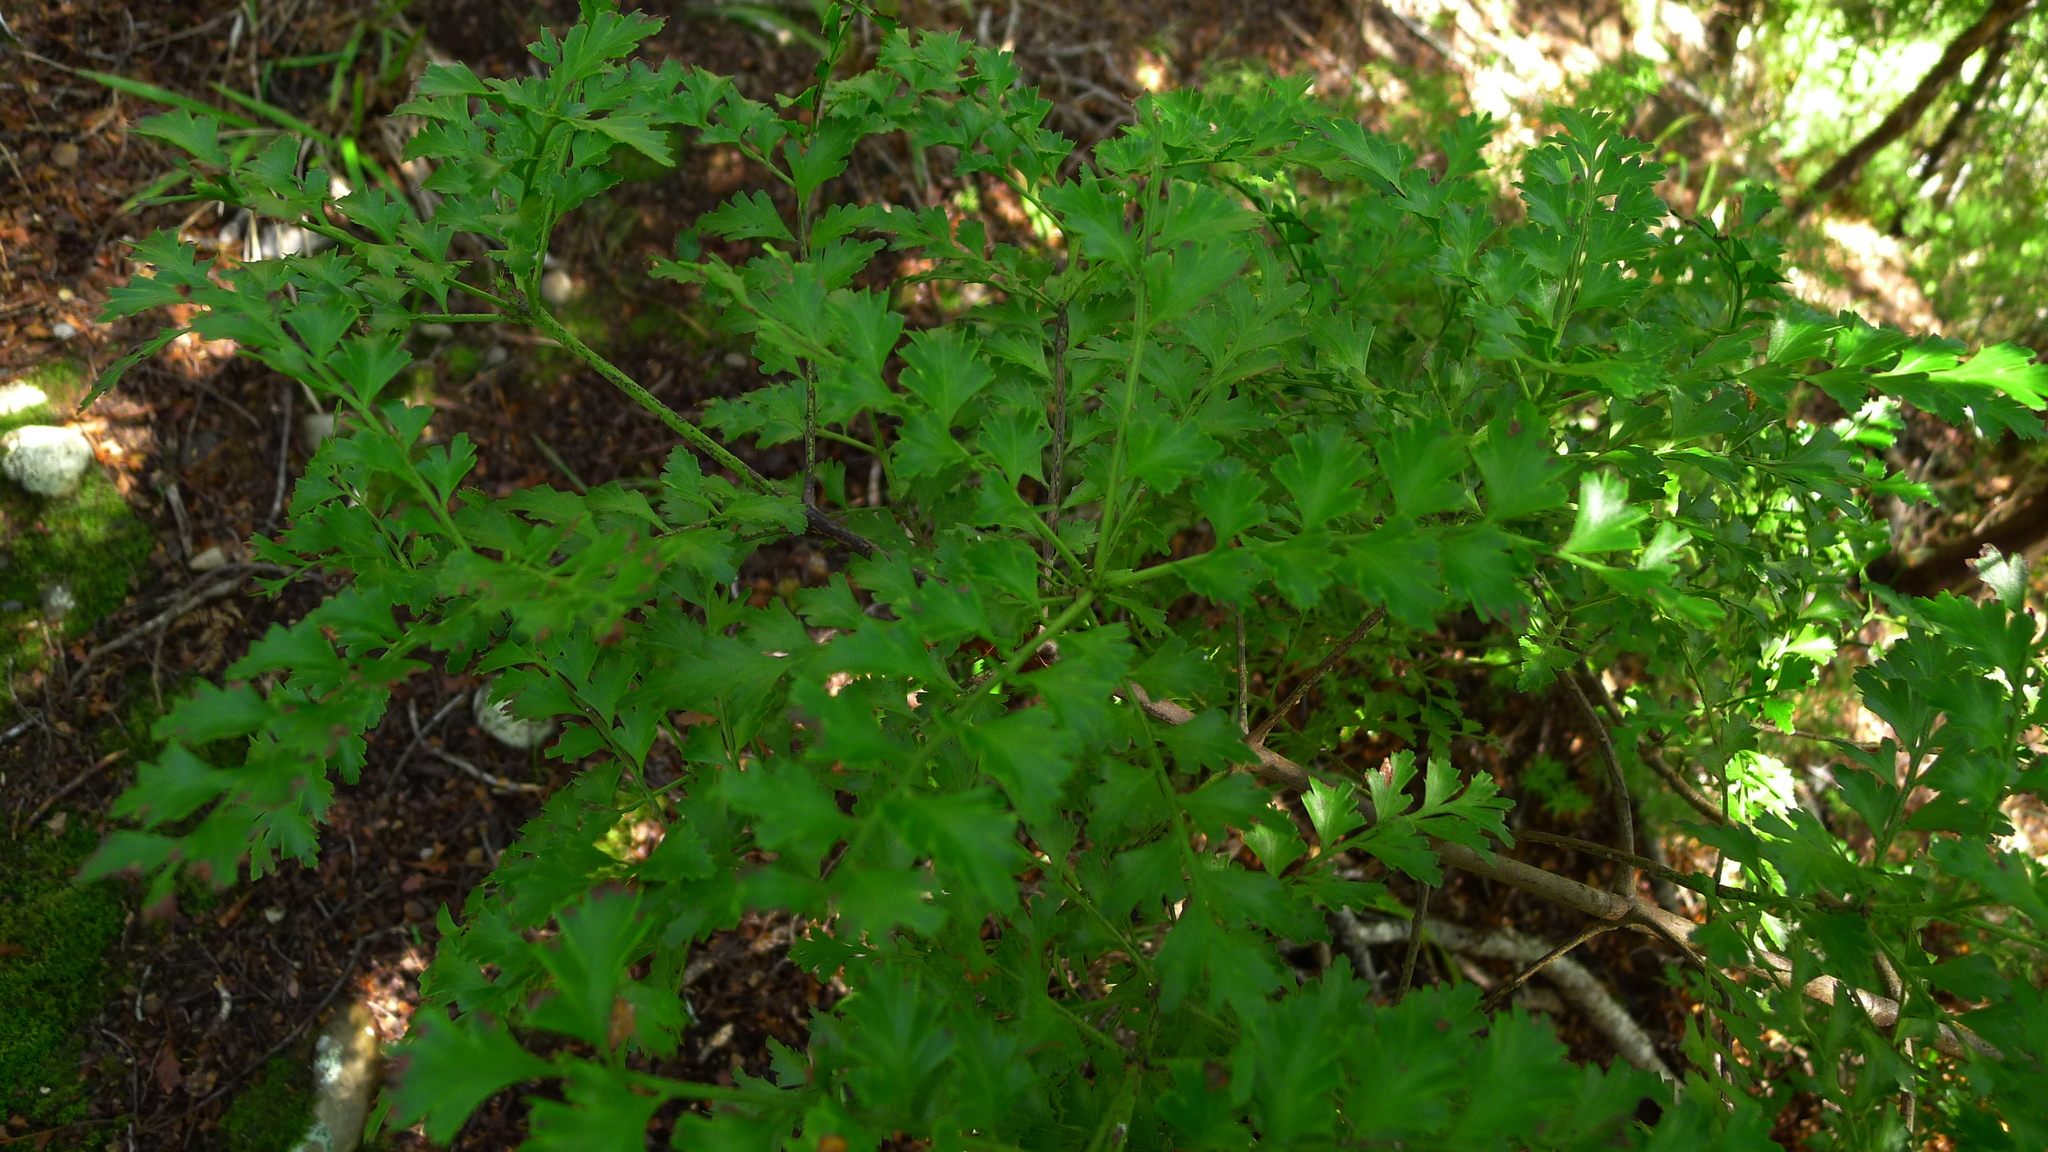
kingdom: Plantae
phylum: Tracheophyta
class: Pinopsida
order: Pinales
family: Phyllocladaceae
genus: Phyllocladus
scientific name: Phyllocladus trichomanoides
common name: Celery pine
